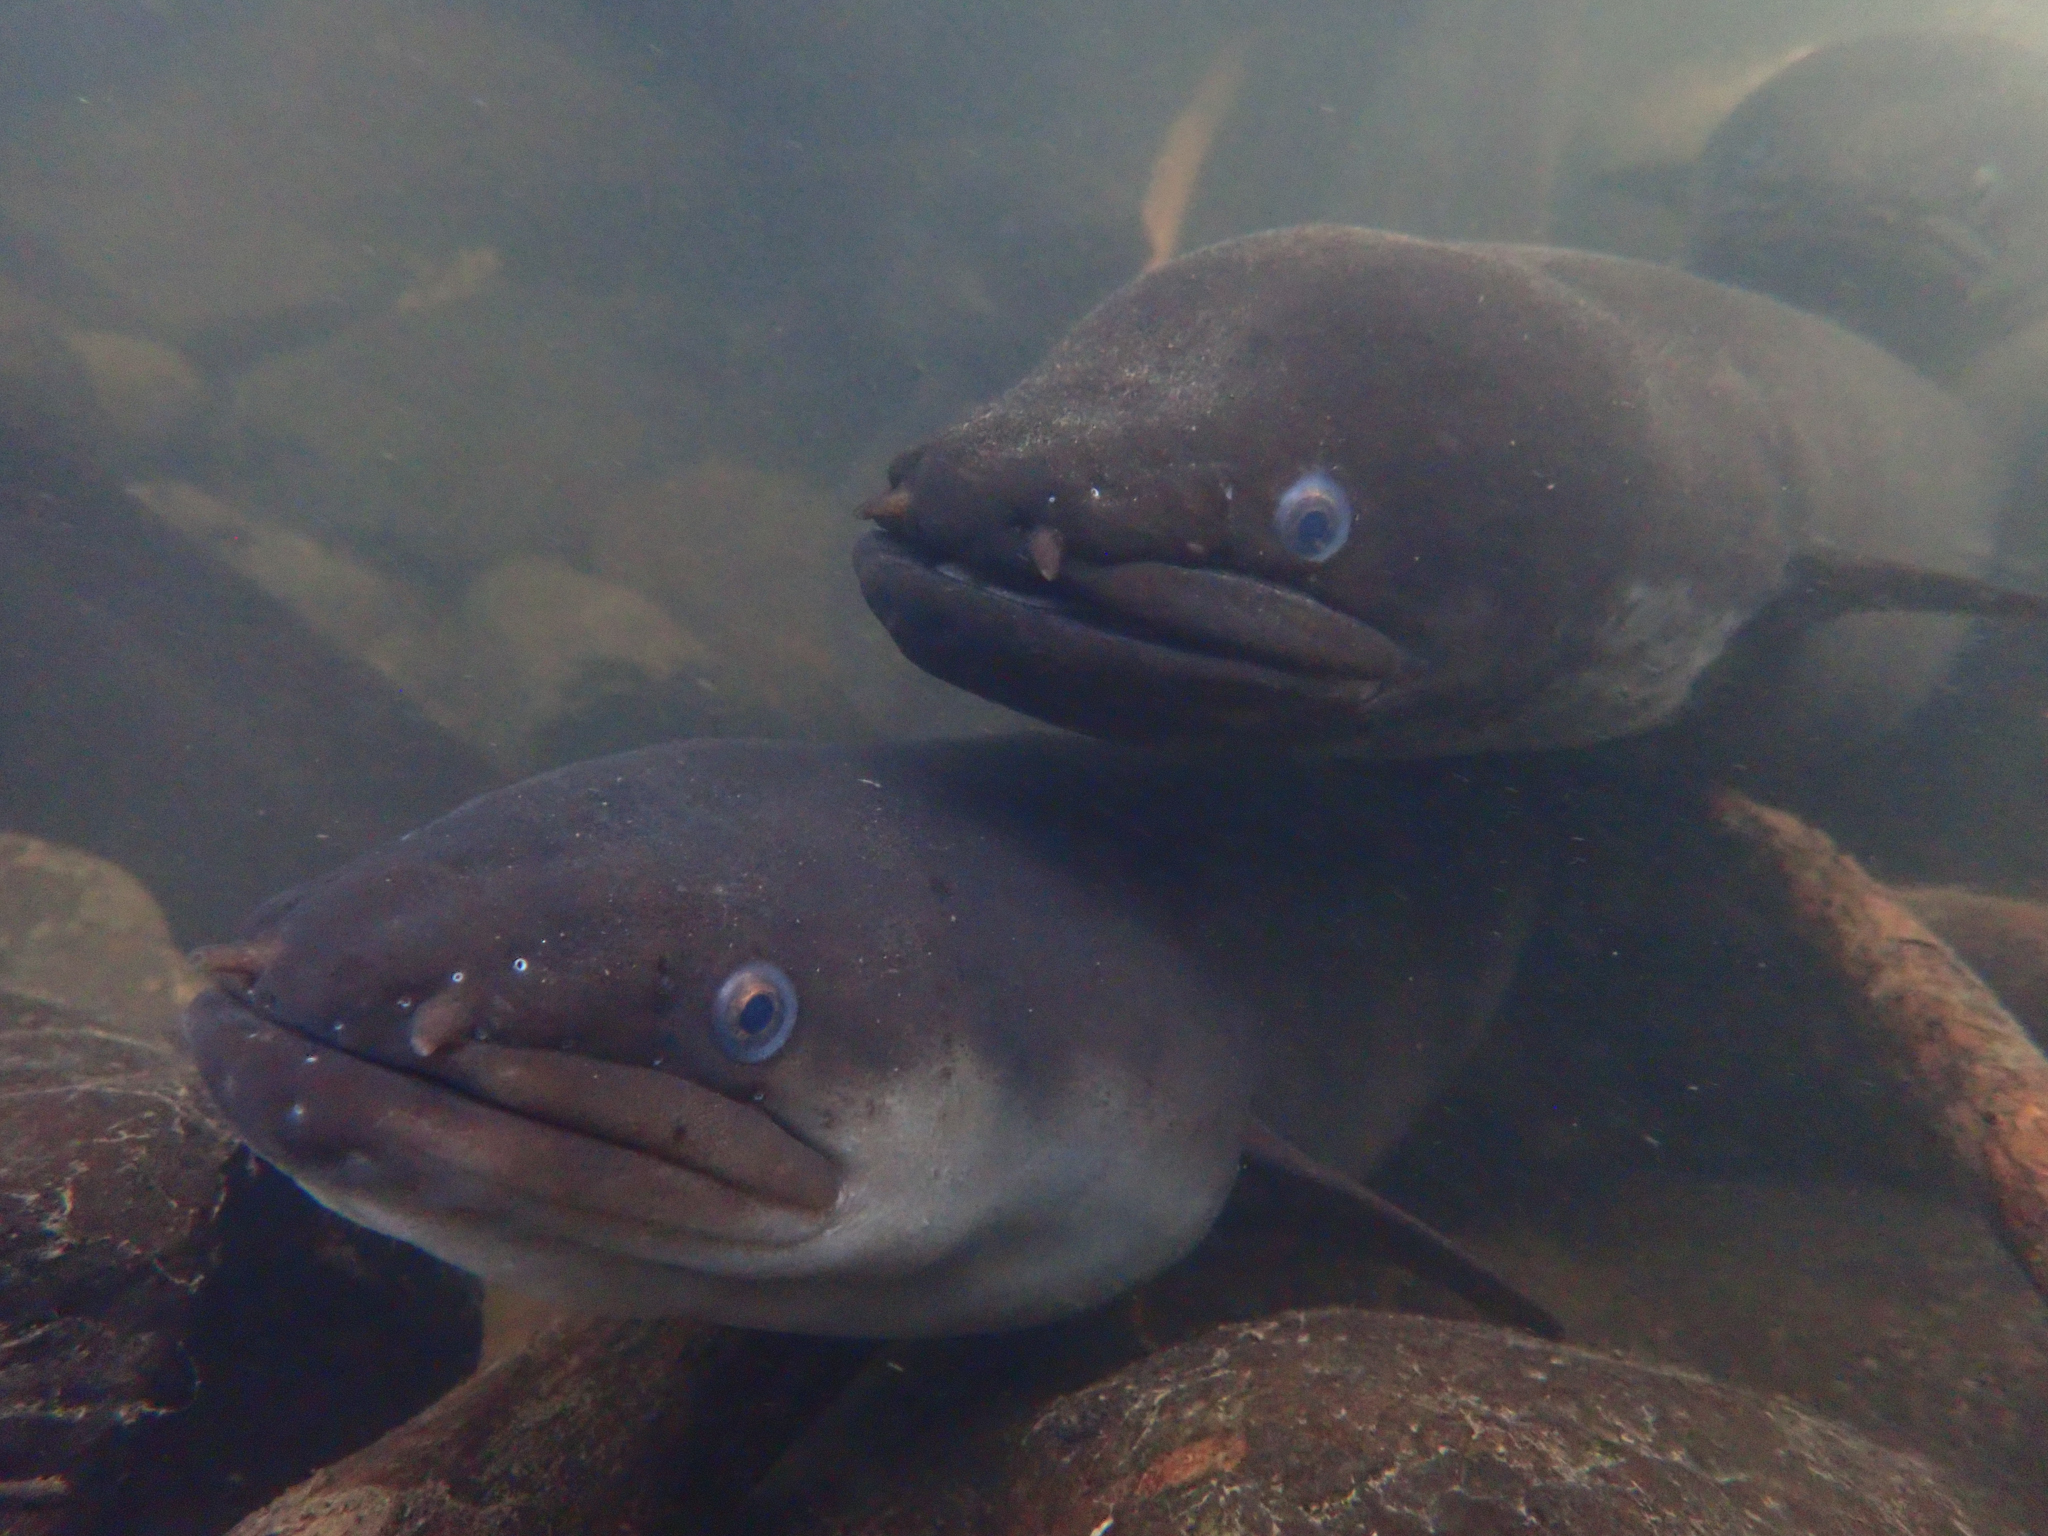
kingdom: Animalia
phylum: Chordata
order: Anguilliformes
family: Anguillidae
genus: Anguilla
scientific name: Anguilla dieffenbachii
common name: New zealand longfin eel
